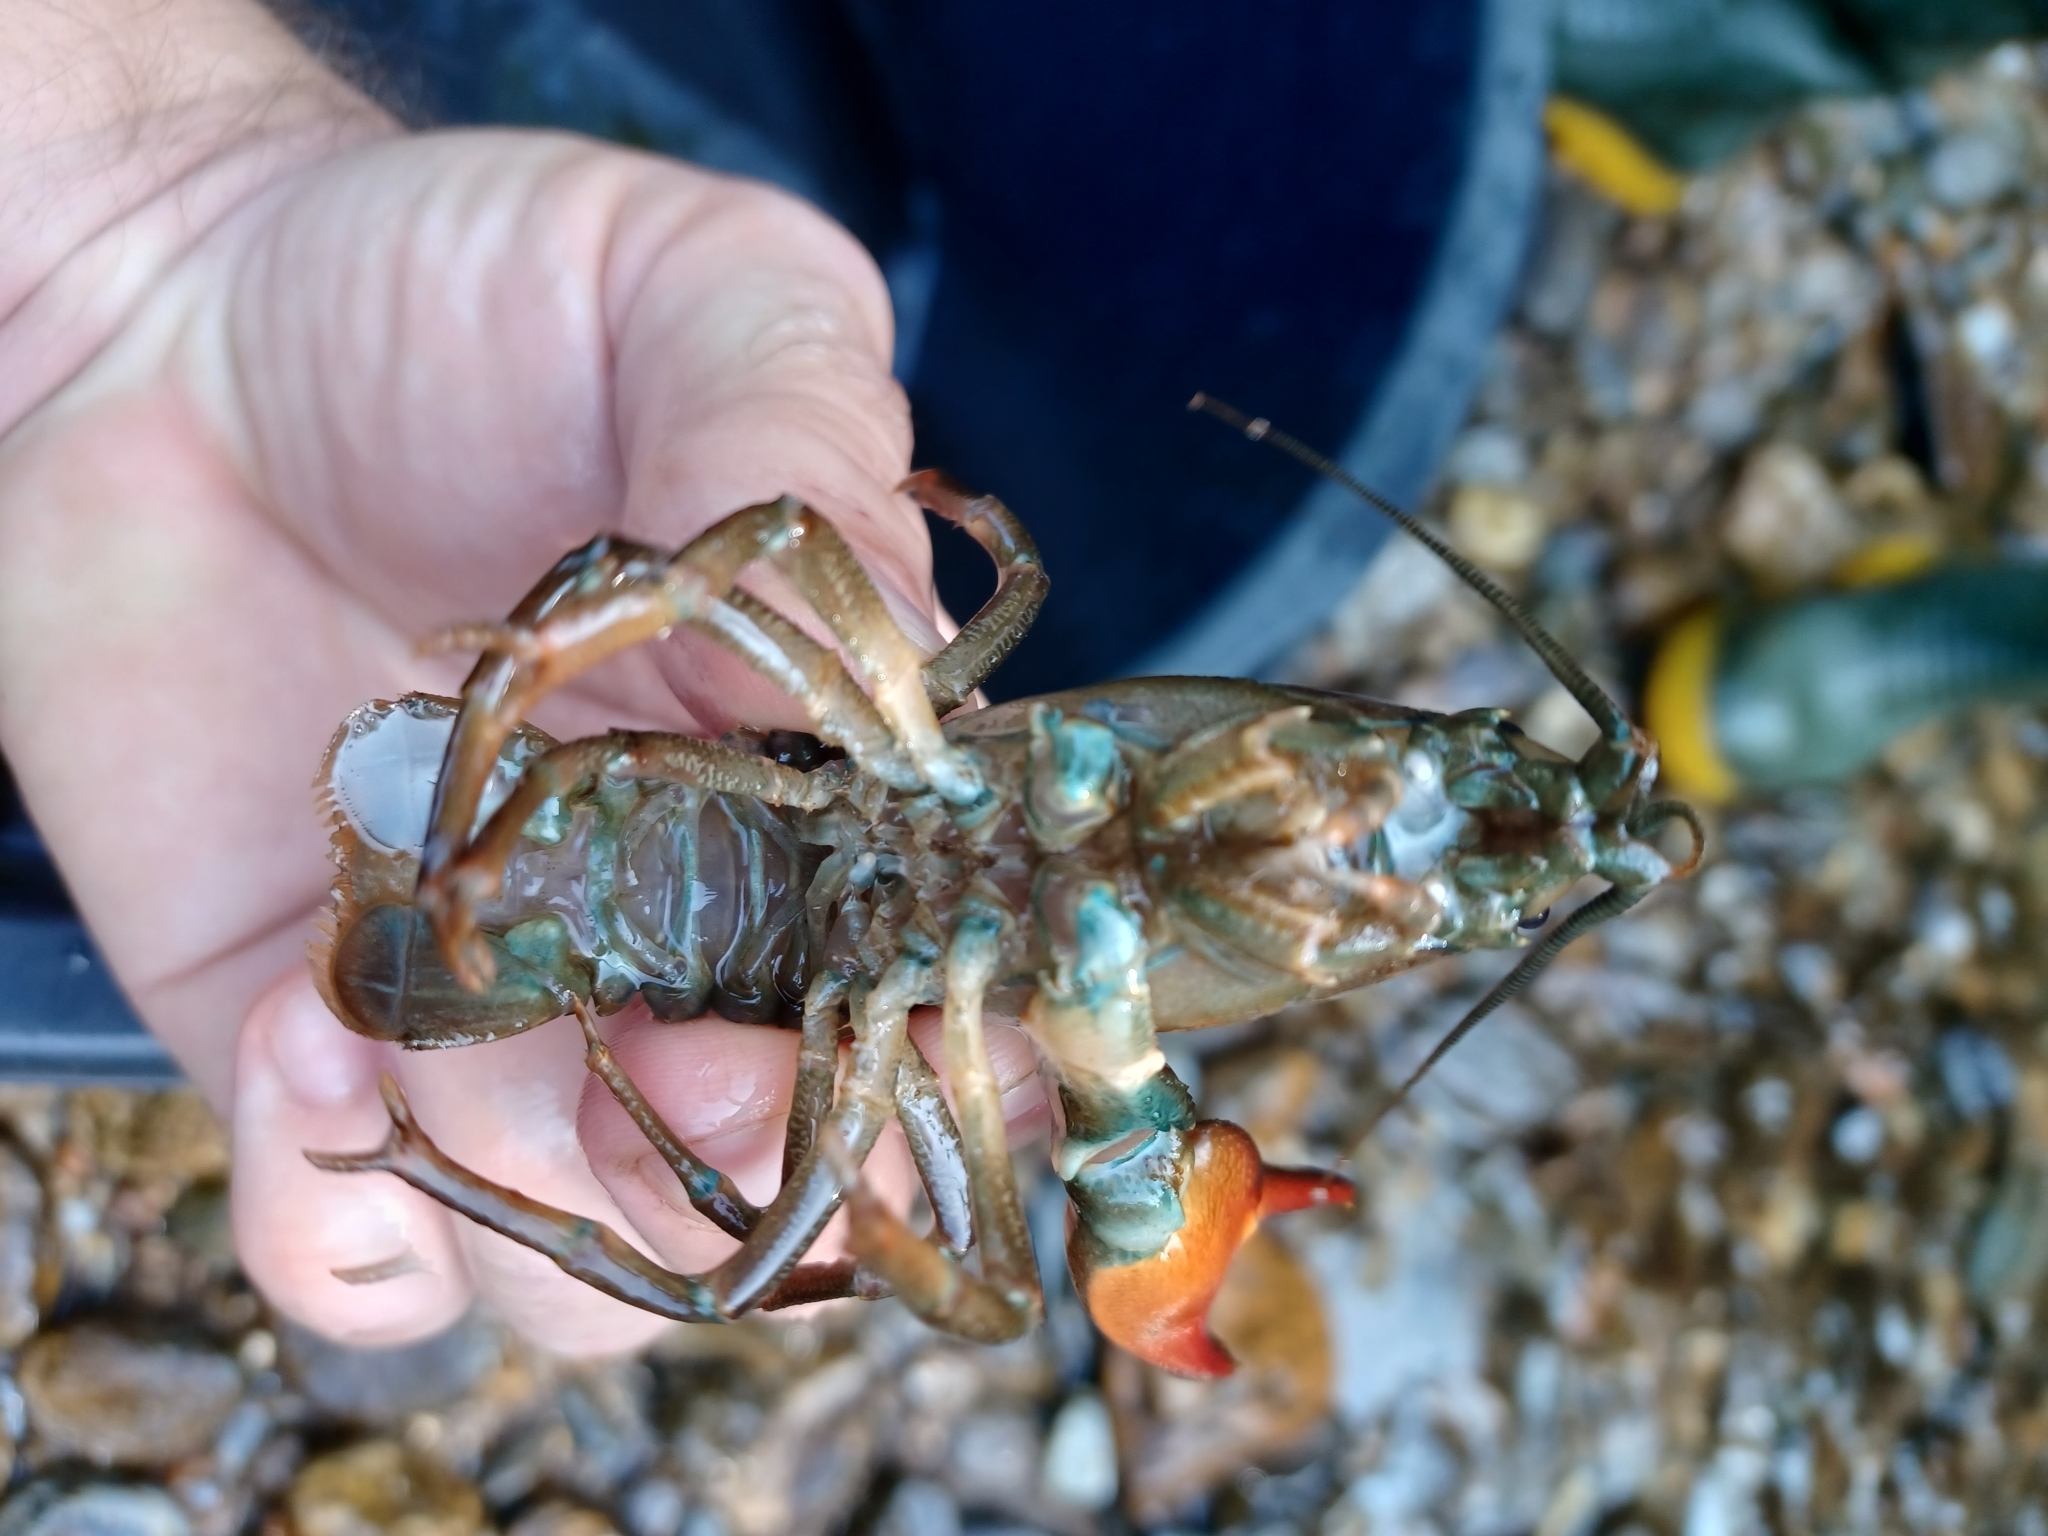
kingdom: Animalia
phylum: Arthropoda
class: Malacostraca
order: Decapoda
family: Astacidae
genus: Pacifastacus
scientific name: Pacifastacus leniusculus
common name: Signal crayfish
